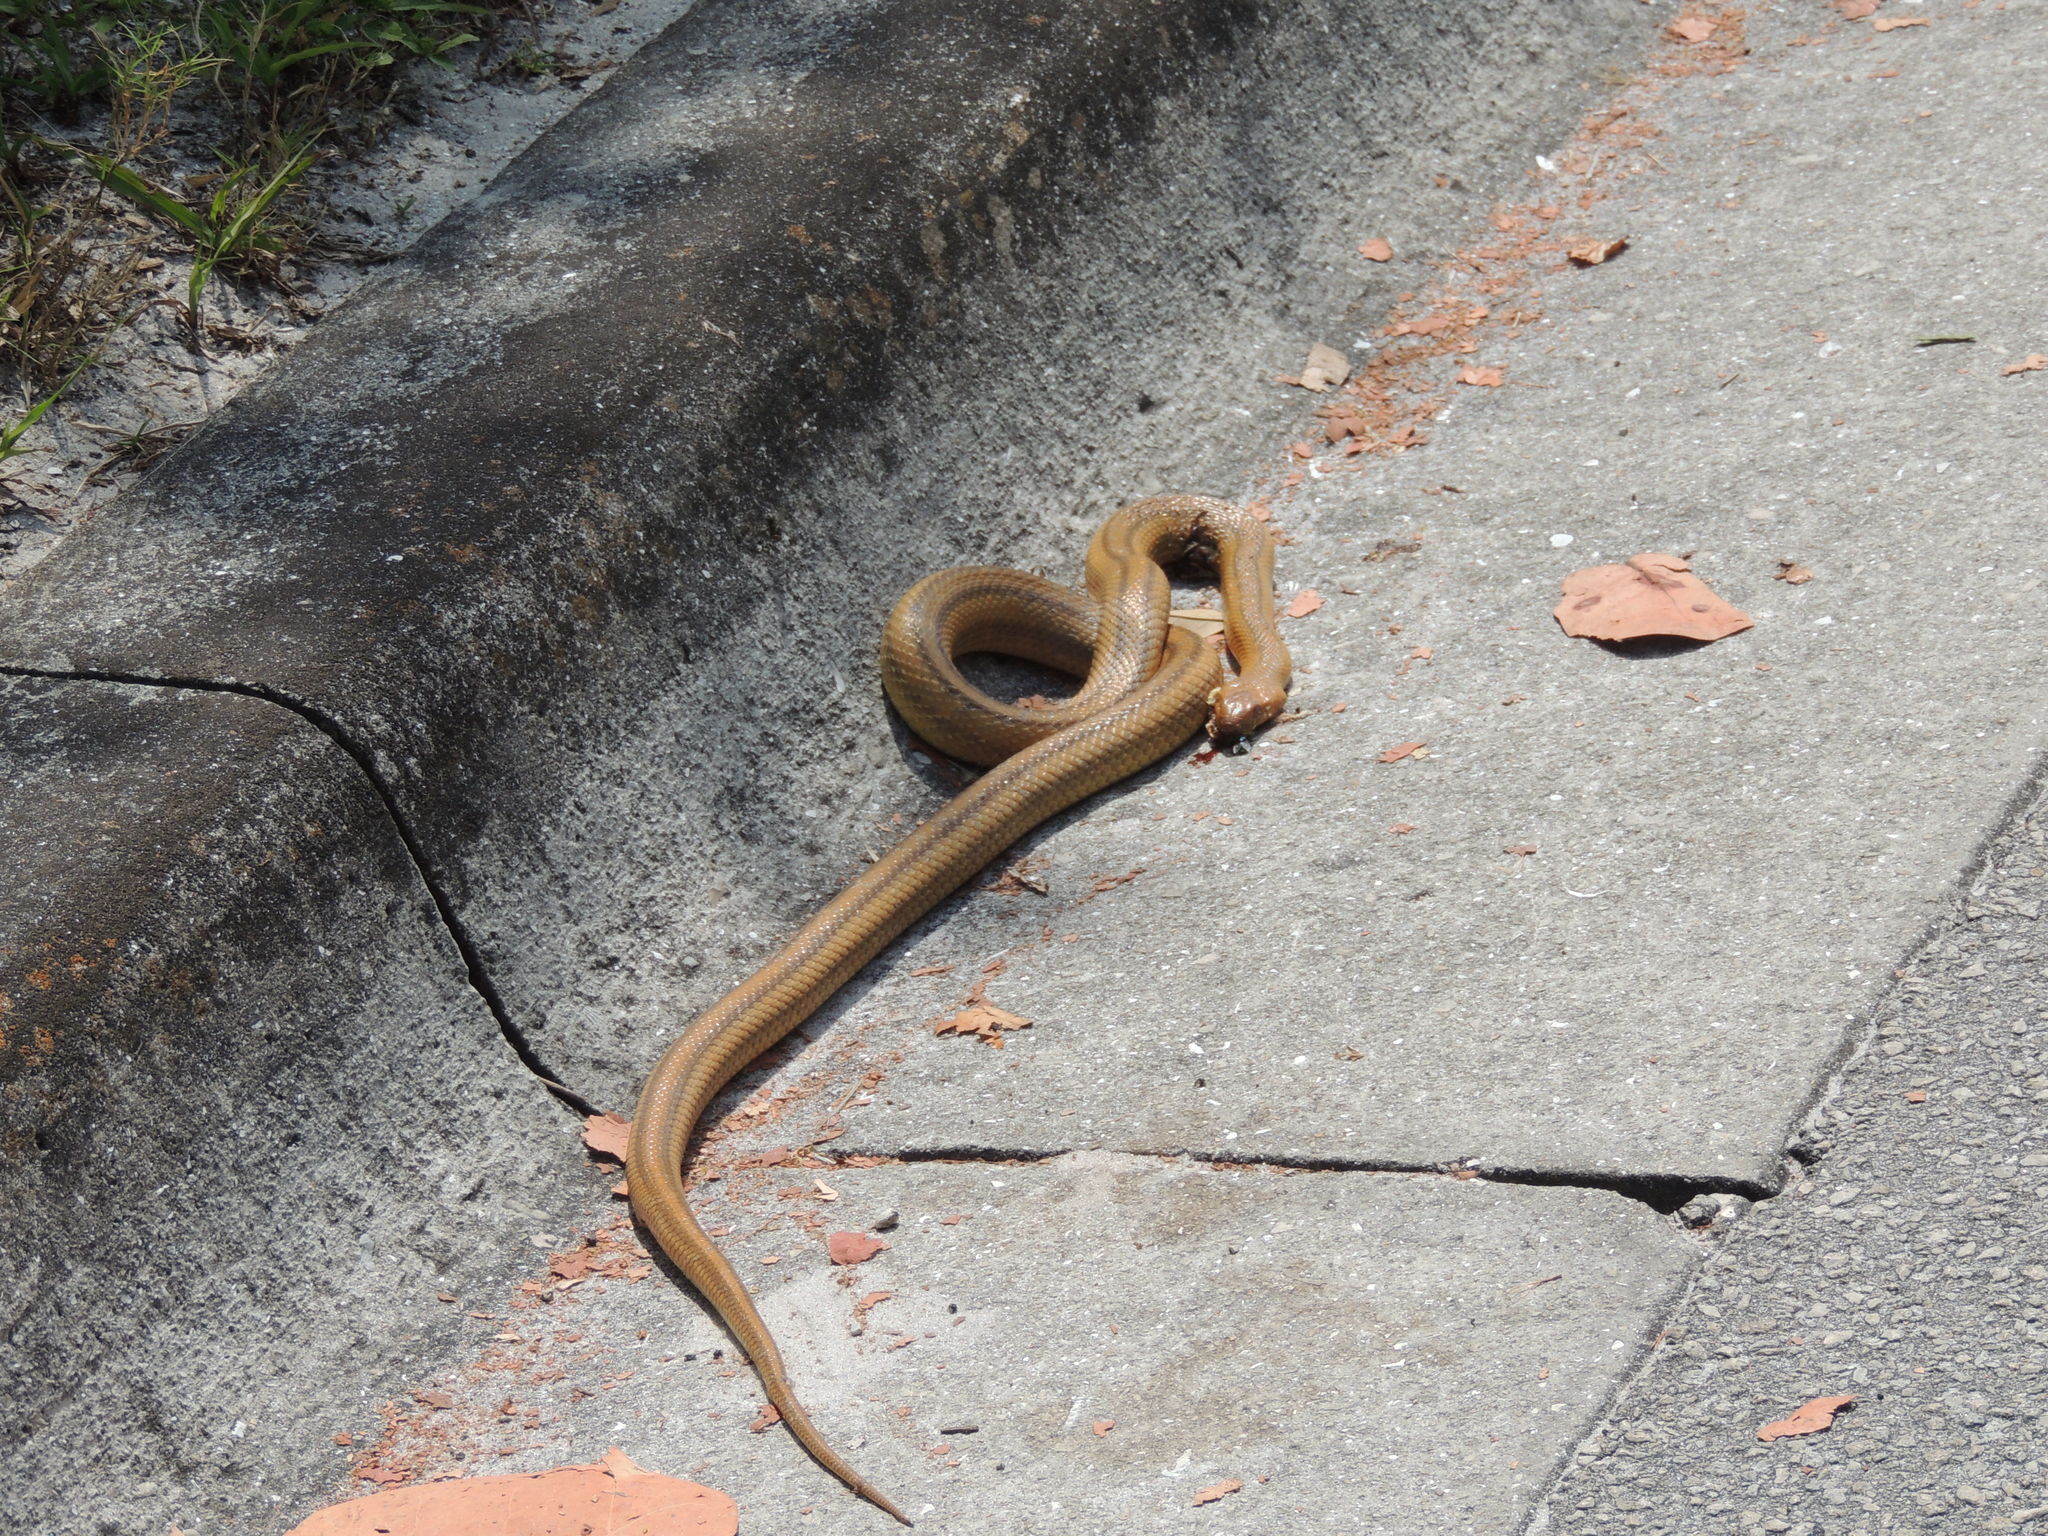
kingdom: Animalia
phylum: Chordata
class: Squamata
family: Colubridae
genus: Pantherophis
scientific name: Pantherophis alleghaniensis
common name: Eastern rat snake
